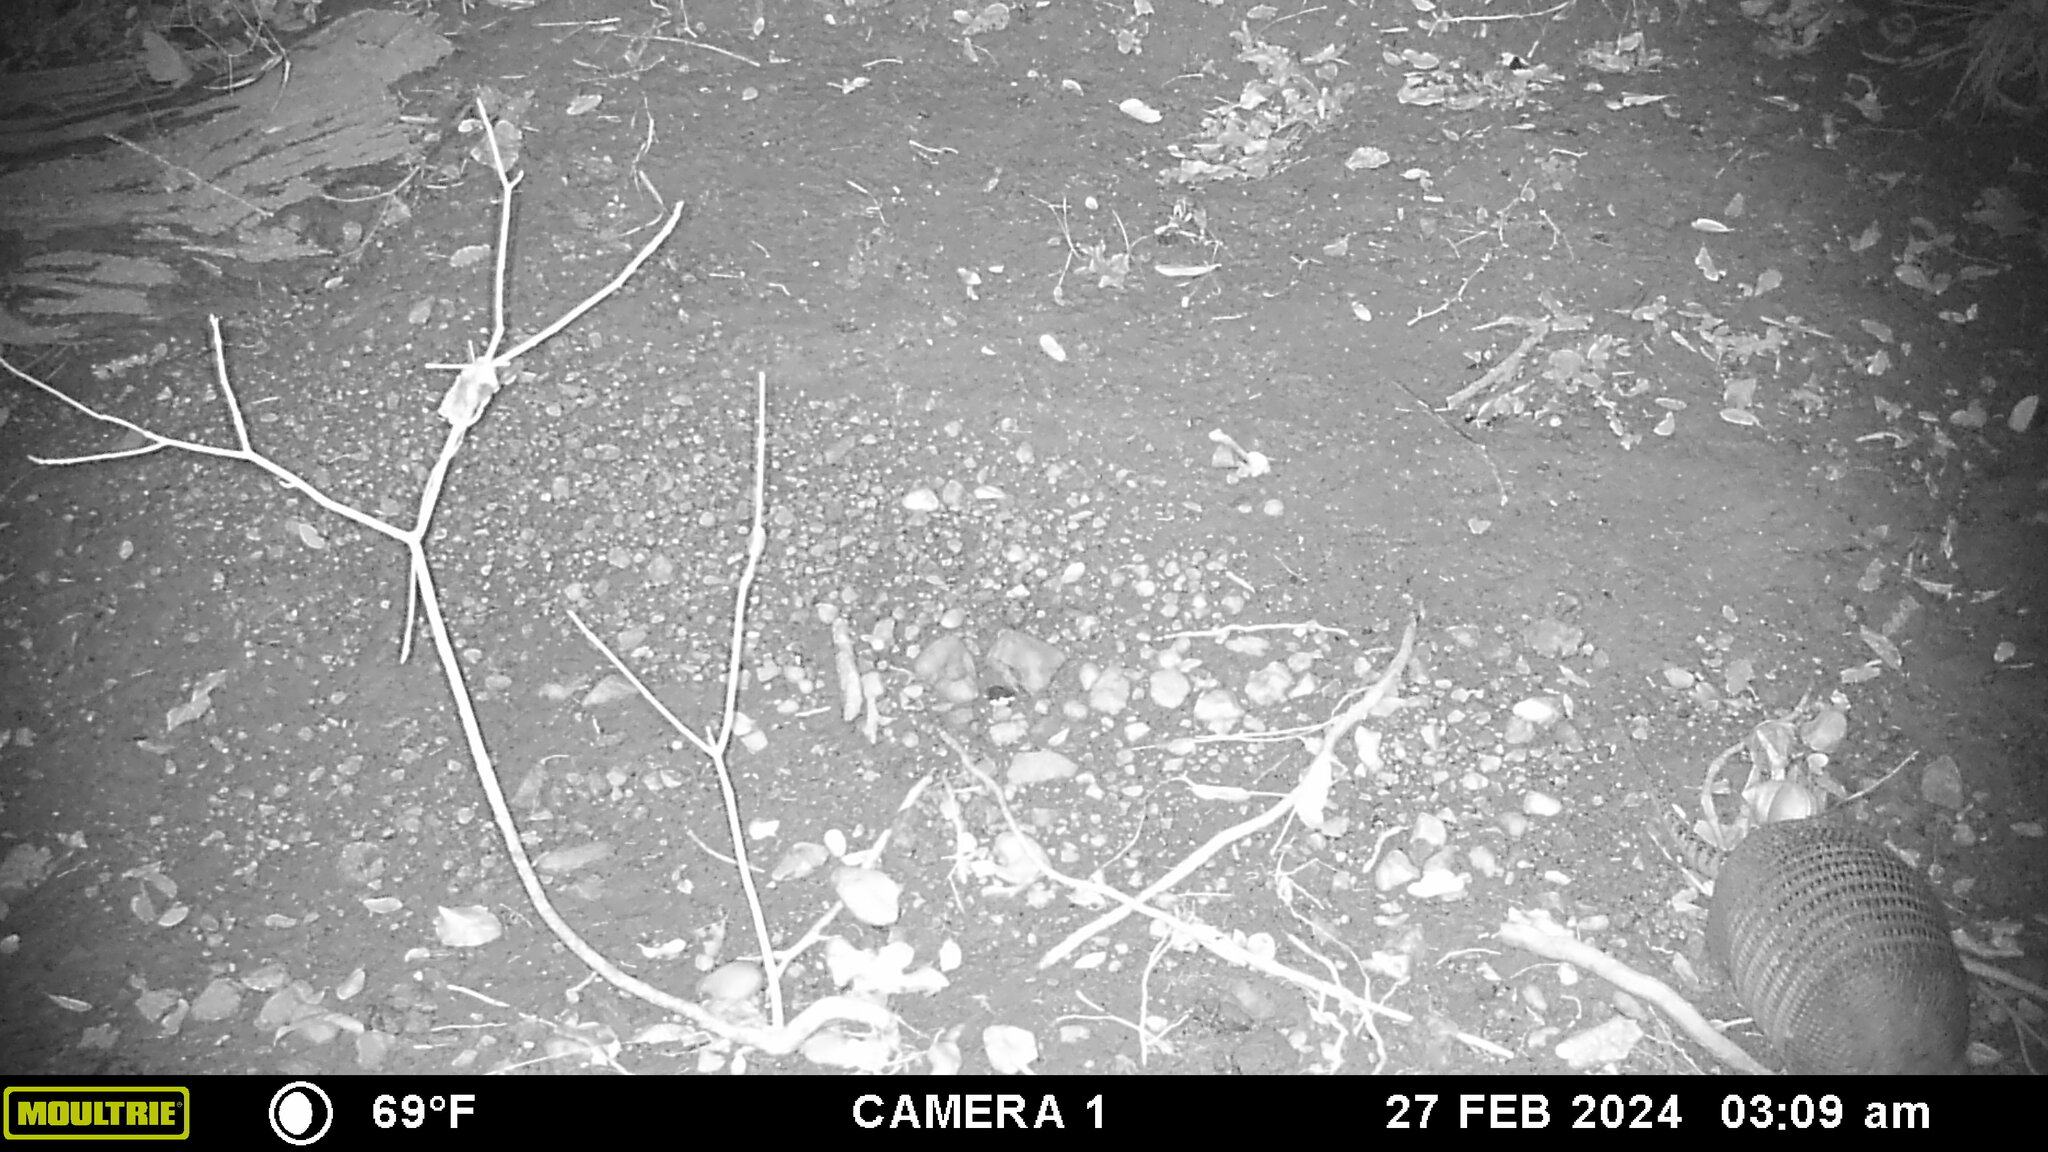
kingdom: Animalia
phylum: Chordata
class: Mammalia
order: Cingulata
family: Dasypodidae
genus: Dasypus
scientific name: Dasypus novemcinctus
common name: Nine-banded armadillo
